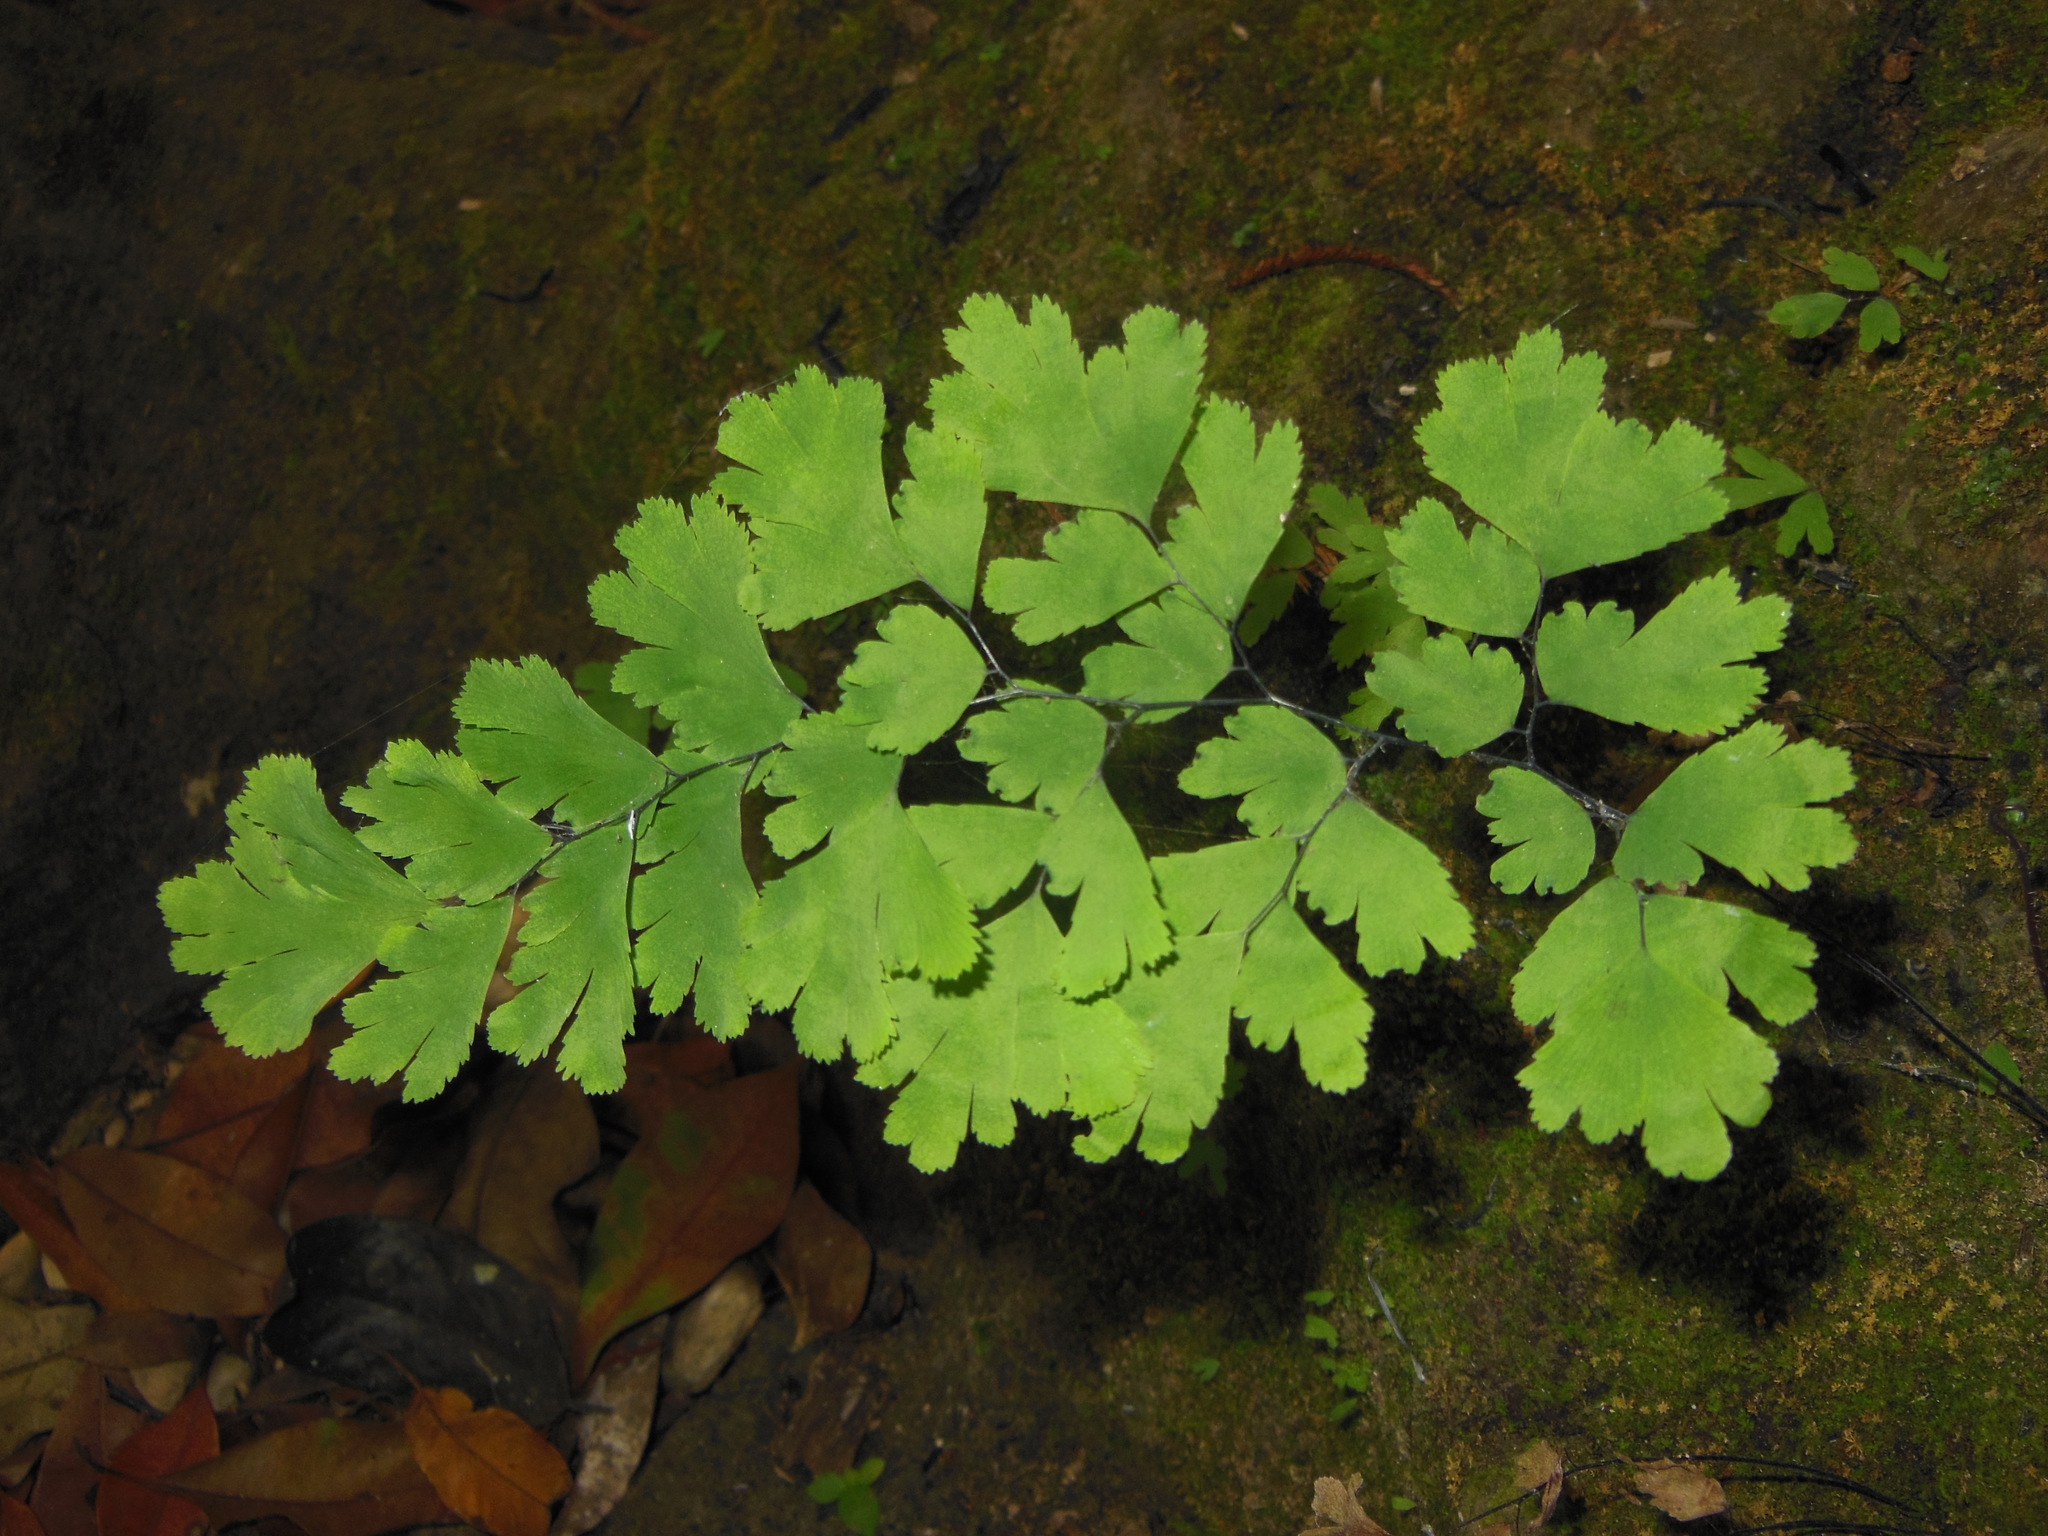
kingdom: Plantae
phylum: Tracheophyta
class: Polypodiopsida
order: Polypodiales
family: Pteridaceae
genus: Adiantum
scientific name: Adiantum capillus-veneris
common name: Maidenhair fern
